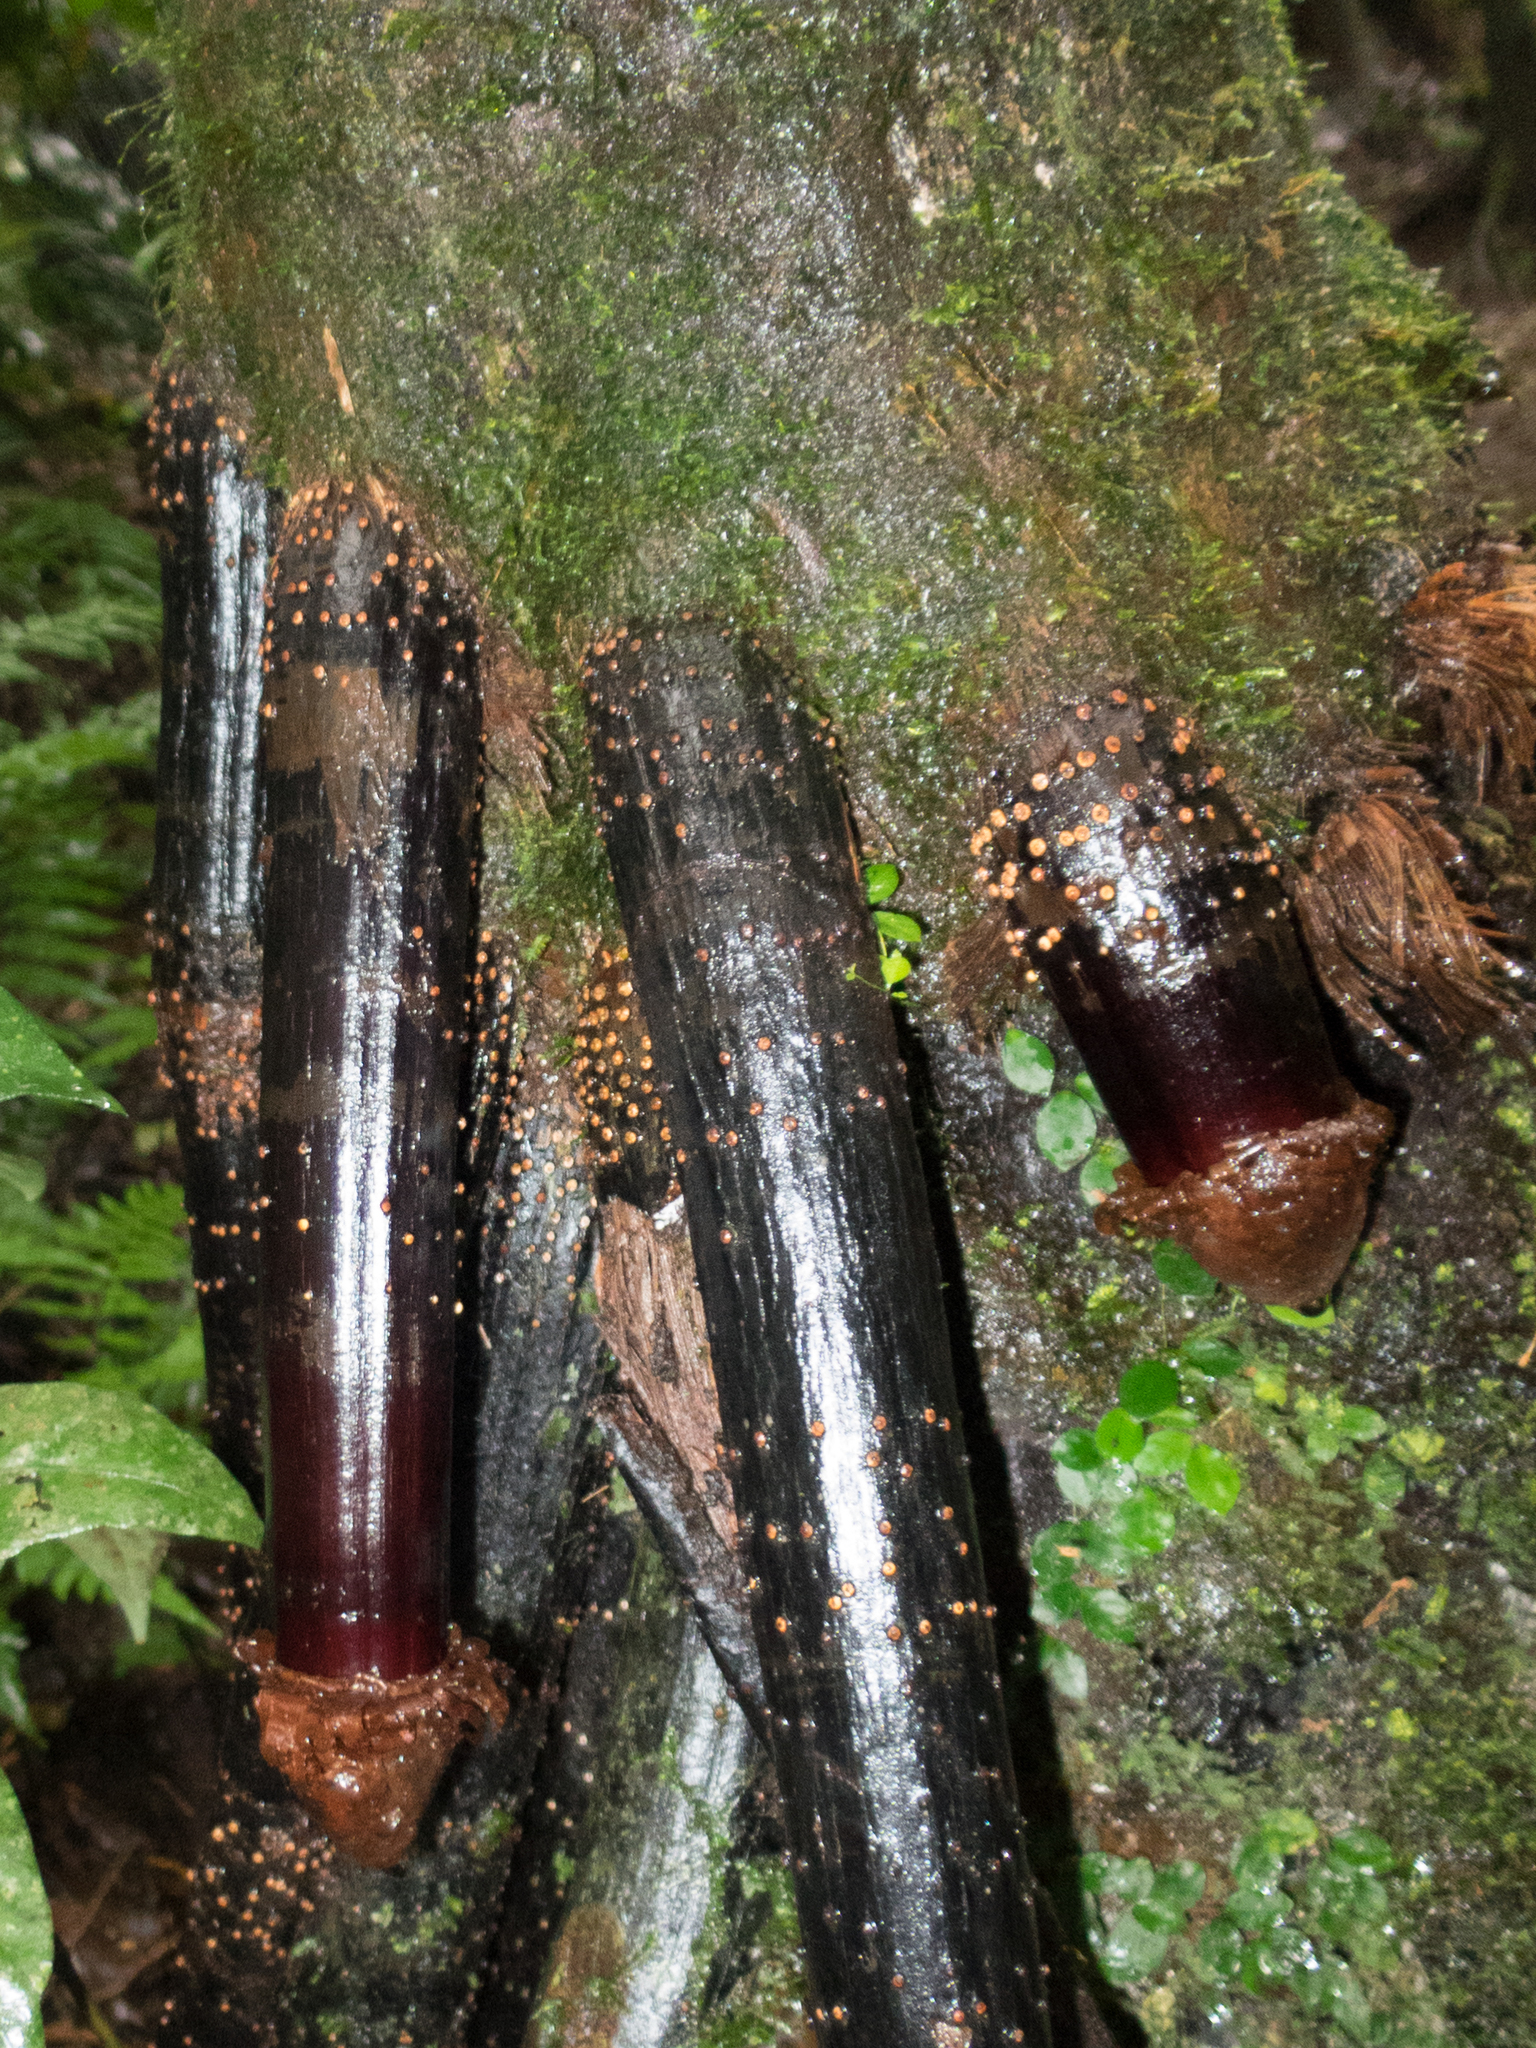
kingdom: Plantae
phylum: Tracheophyta
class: Liliopsida
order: Arecales
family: Arecaceae
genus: Iriartea
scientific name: Iriartea deltoidea
